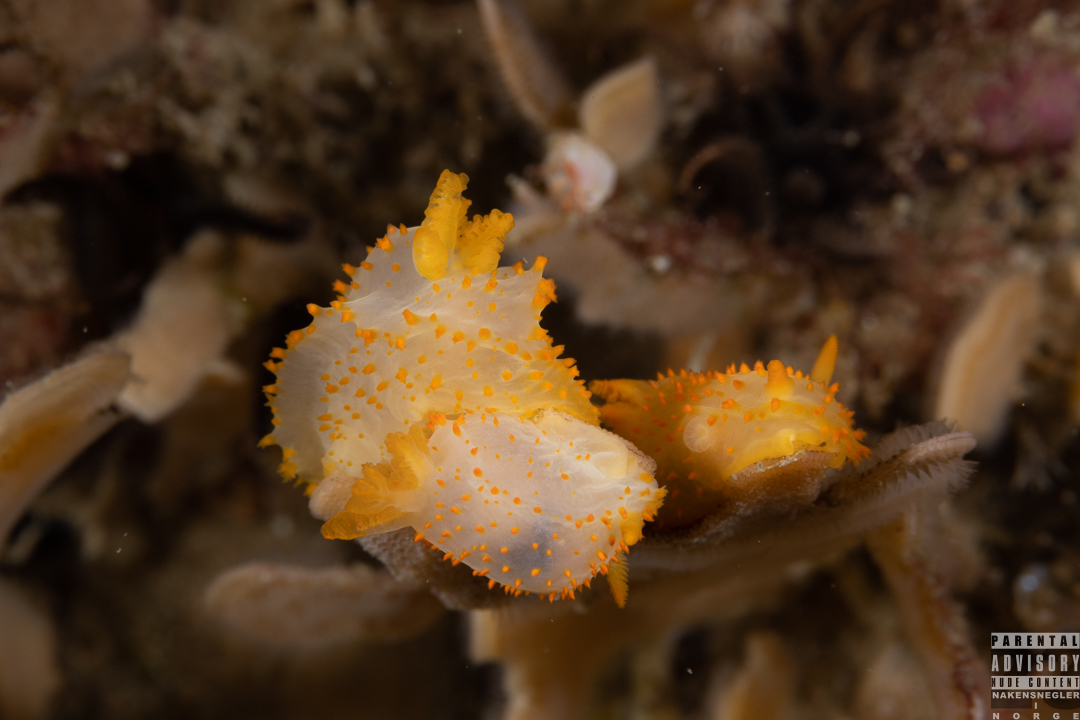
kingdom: Animalia
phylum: Mollusca
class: Gastropoda
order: Nudibranchia
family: Polyceridae
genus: Crimora
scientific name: Crimora papillata
